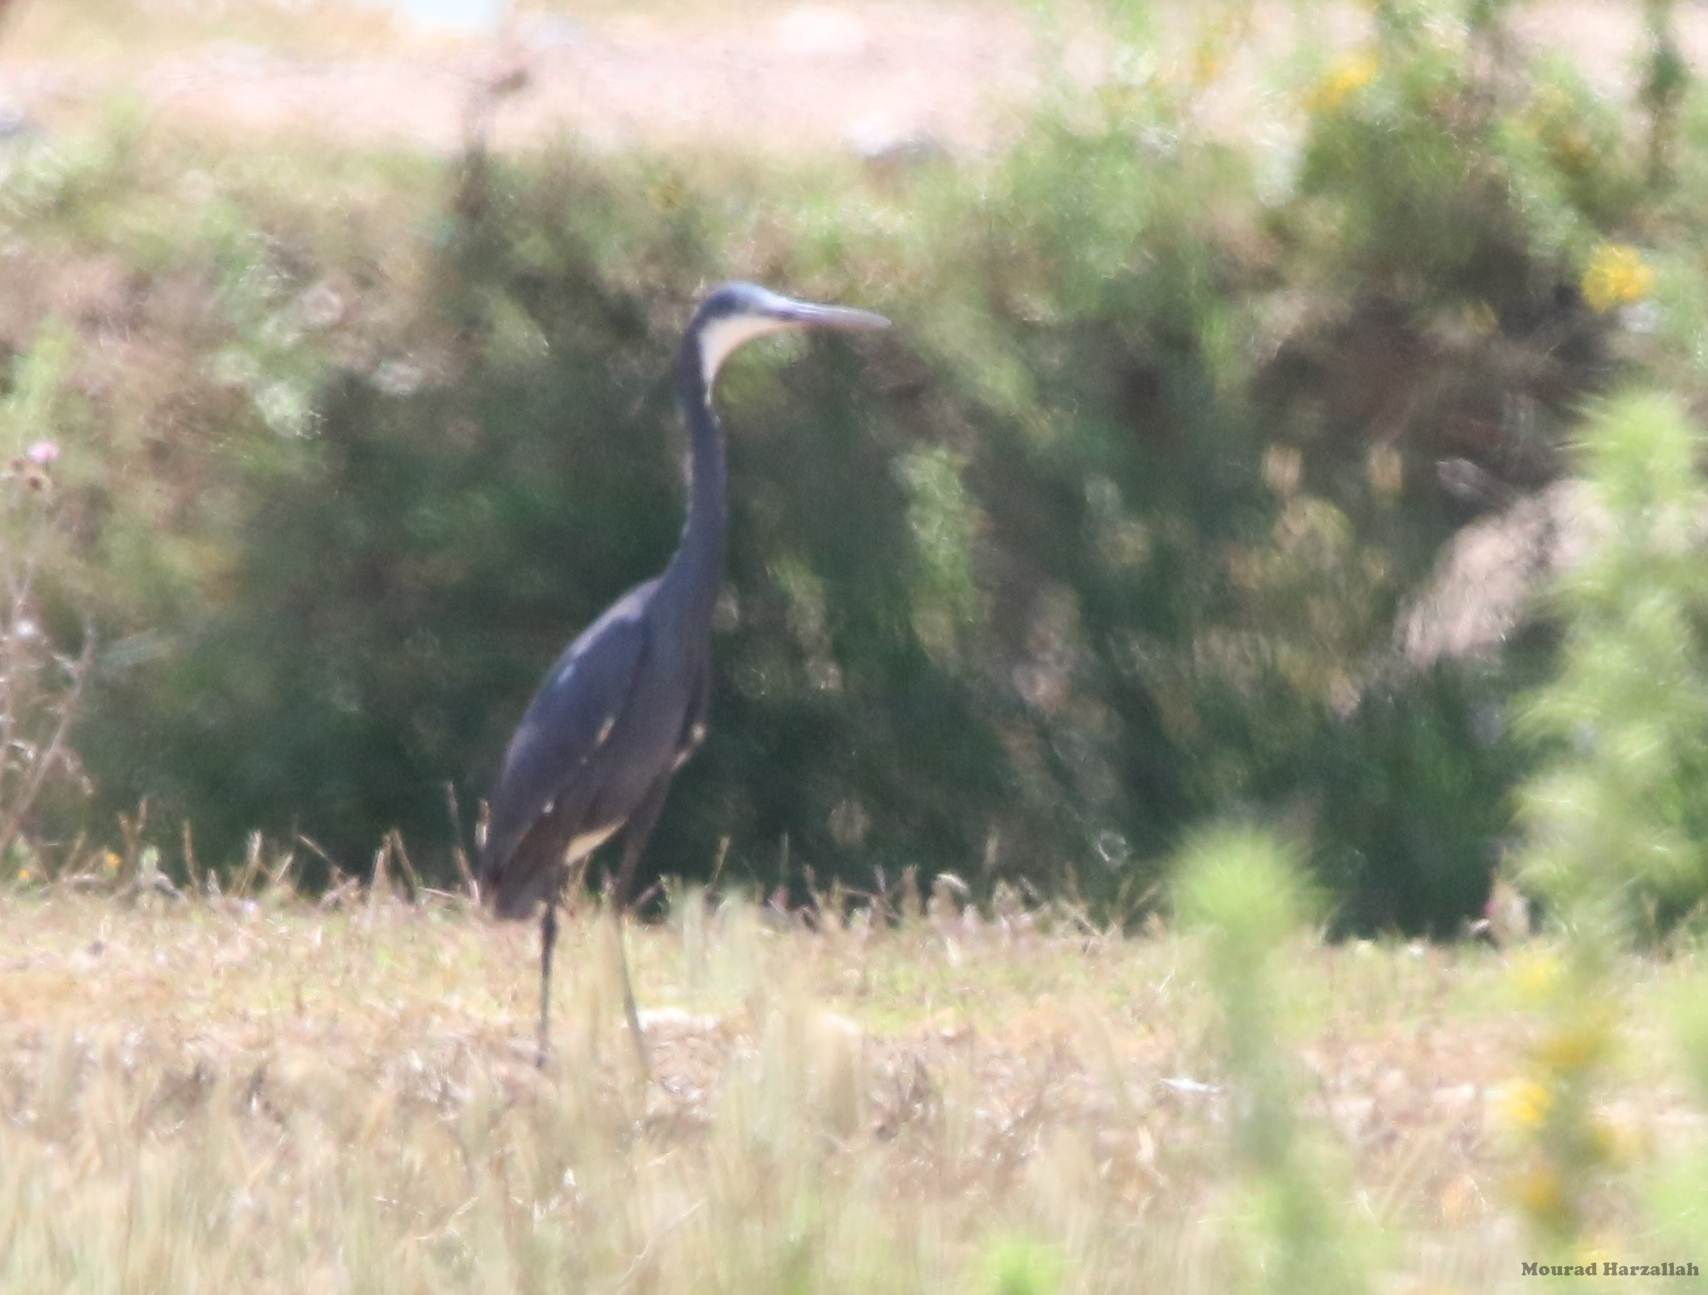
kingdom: Animalia
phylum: Chordata
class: Aves
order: Pelecaniformes
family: Ardeidae
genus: Egretta
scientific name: Egretta gularis
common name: Western reef-heron
